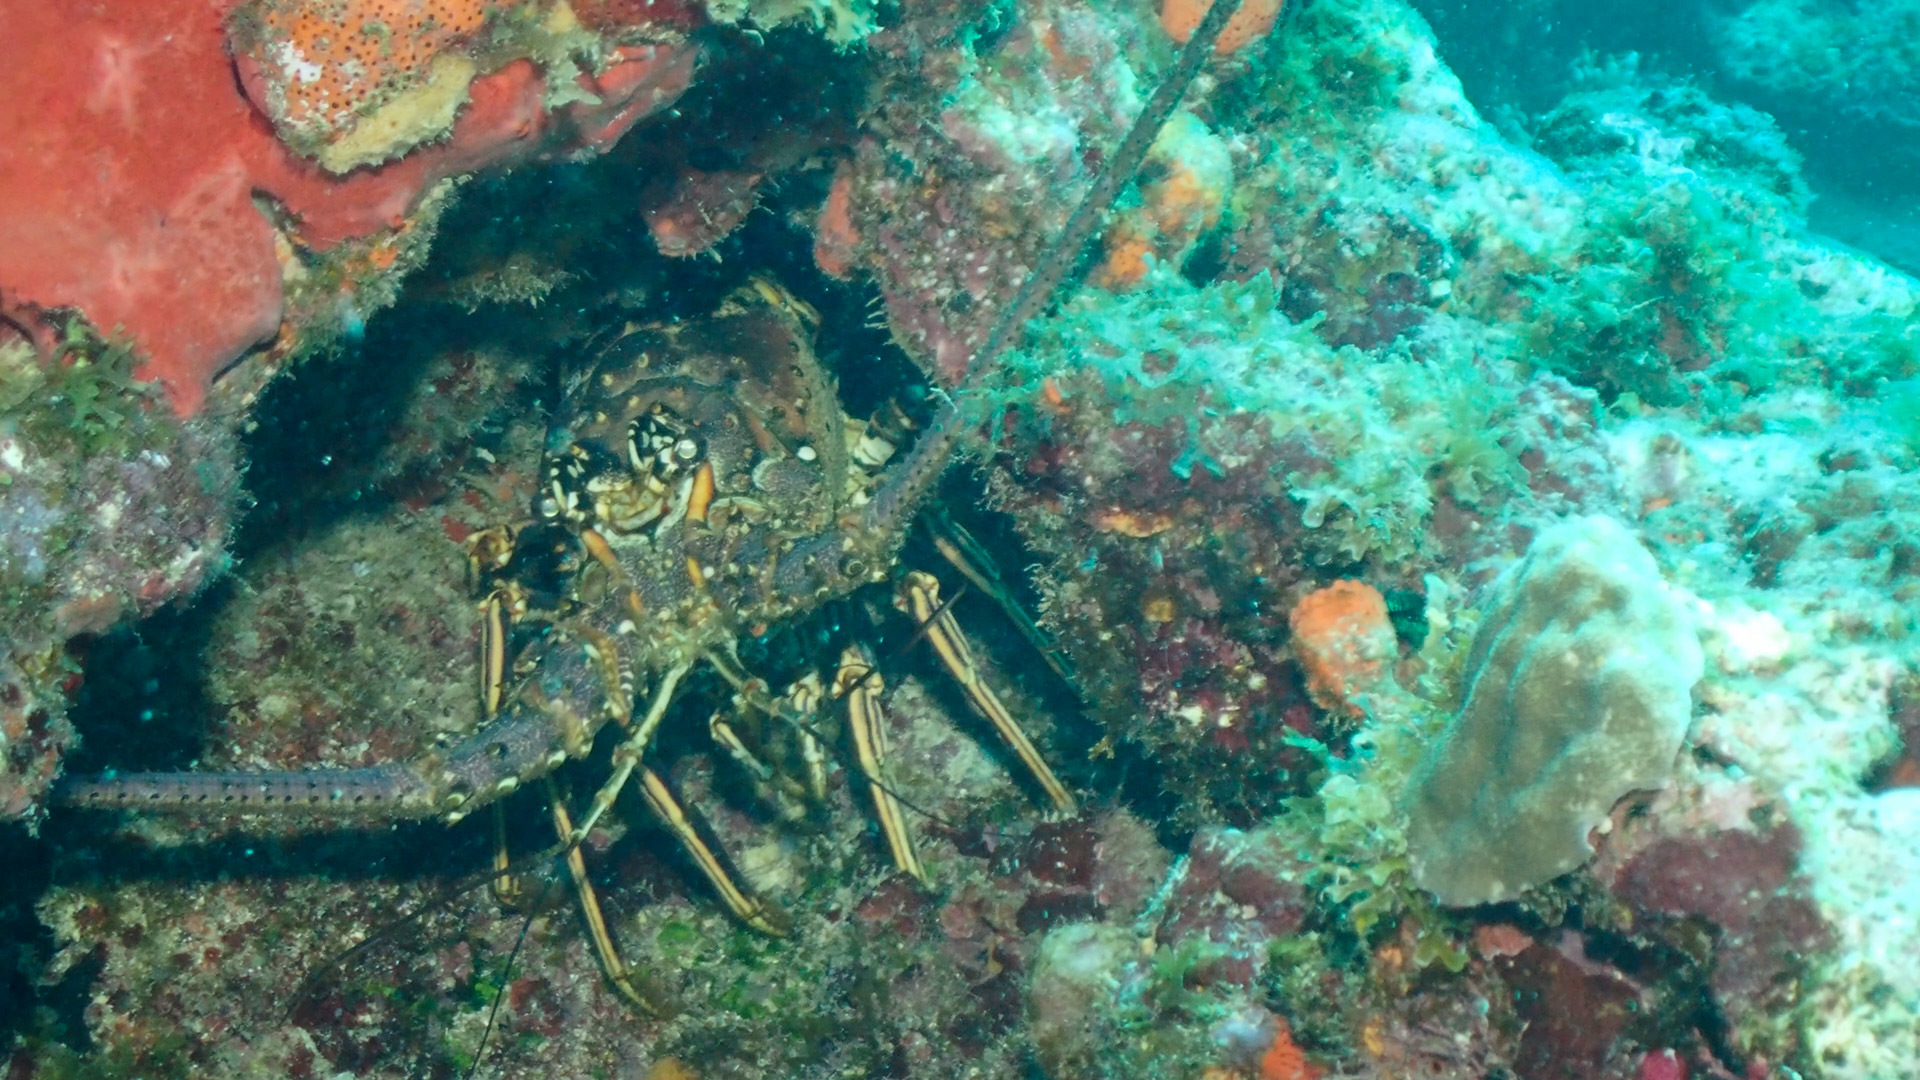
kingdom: Animalia
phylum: Arthropoda
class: Malacostraca
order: Decapoda
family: Palinuridae
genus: Panulirus
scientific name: Panulirus argus
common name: Caribbean spiny lobster
